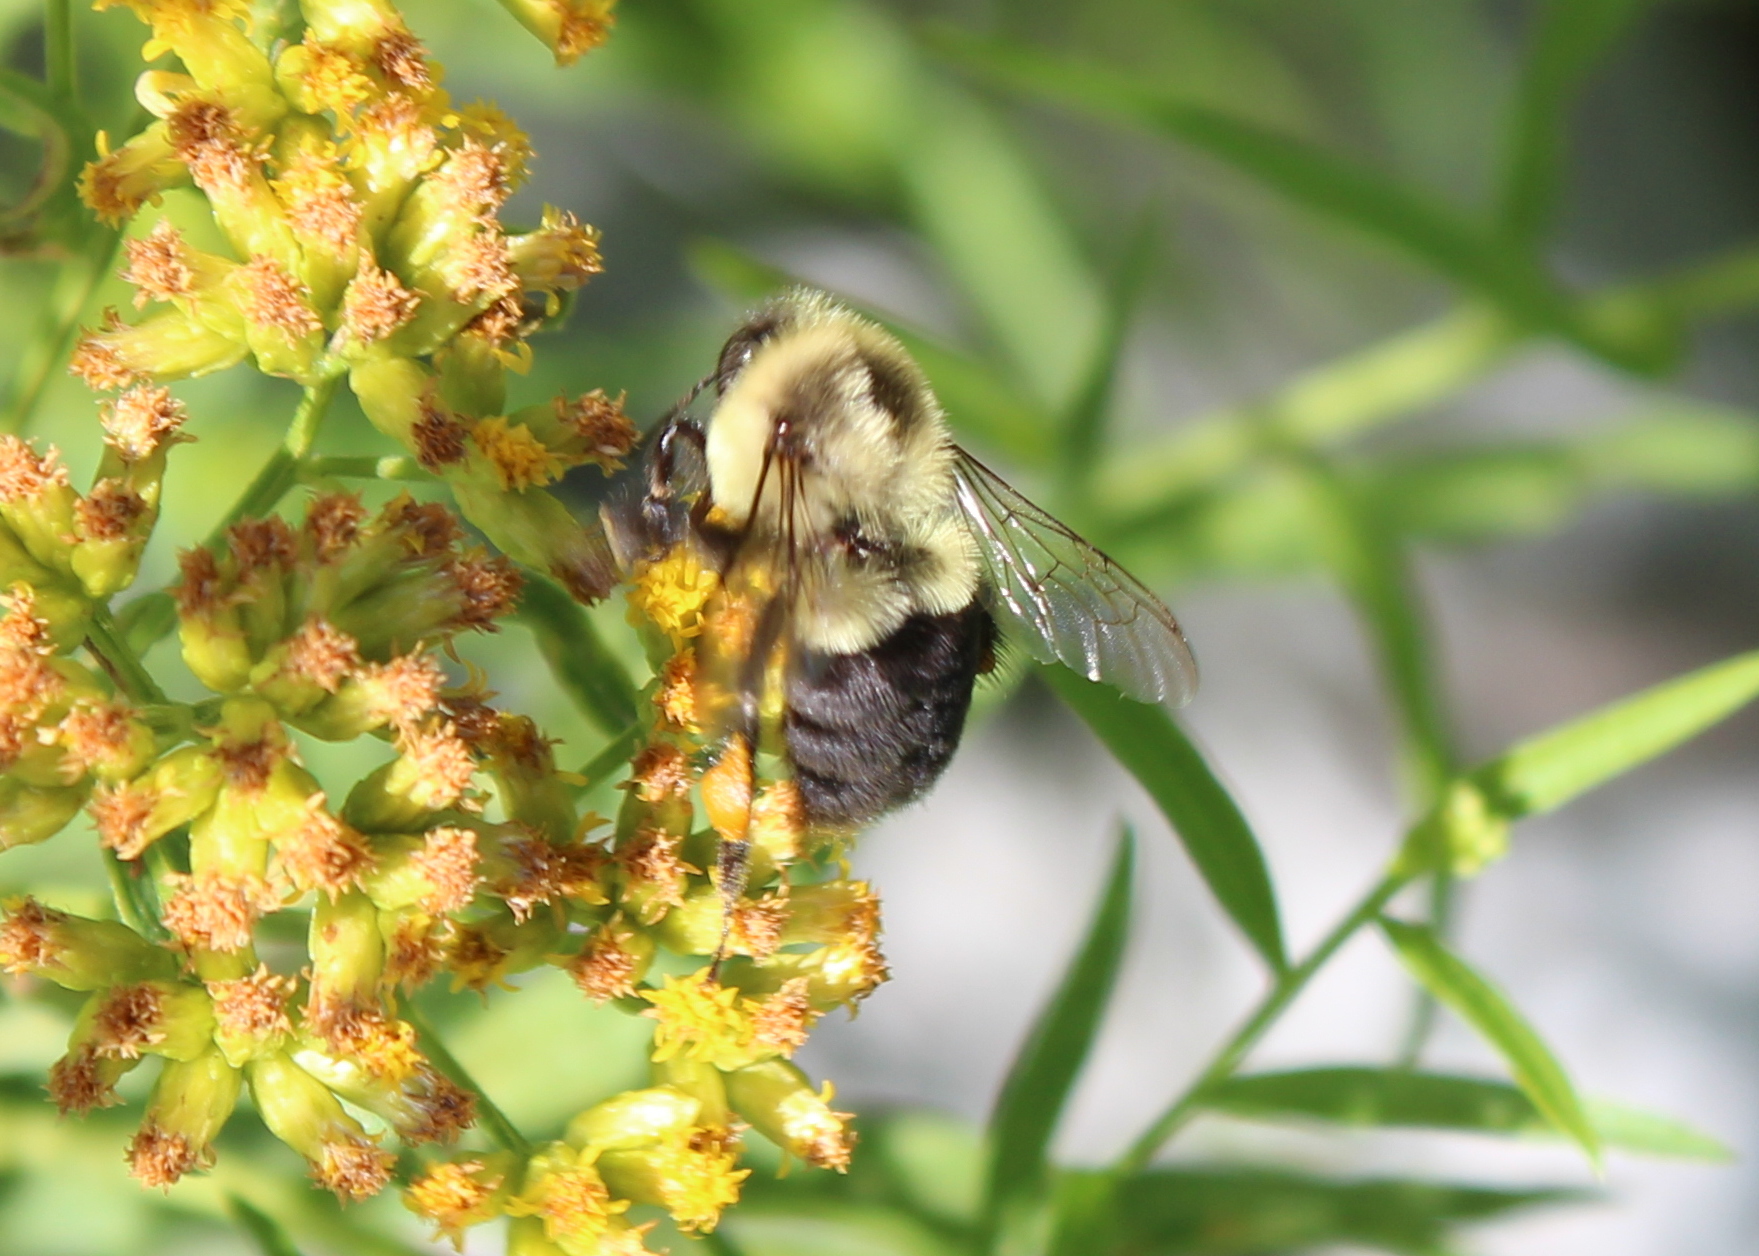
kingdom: Animalia
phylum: Arthropoda
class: Insecta
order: Hymenoptera
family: Apidae
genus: Bombus
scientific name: Bombus impatiens
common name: Common eastern bumble bee
